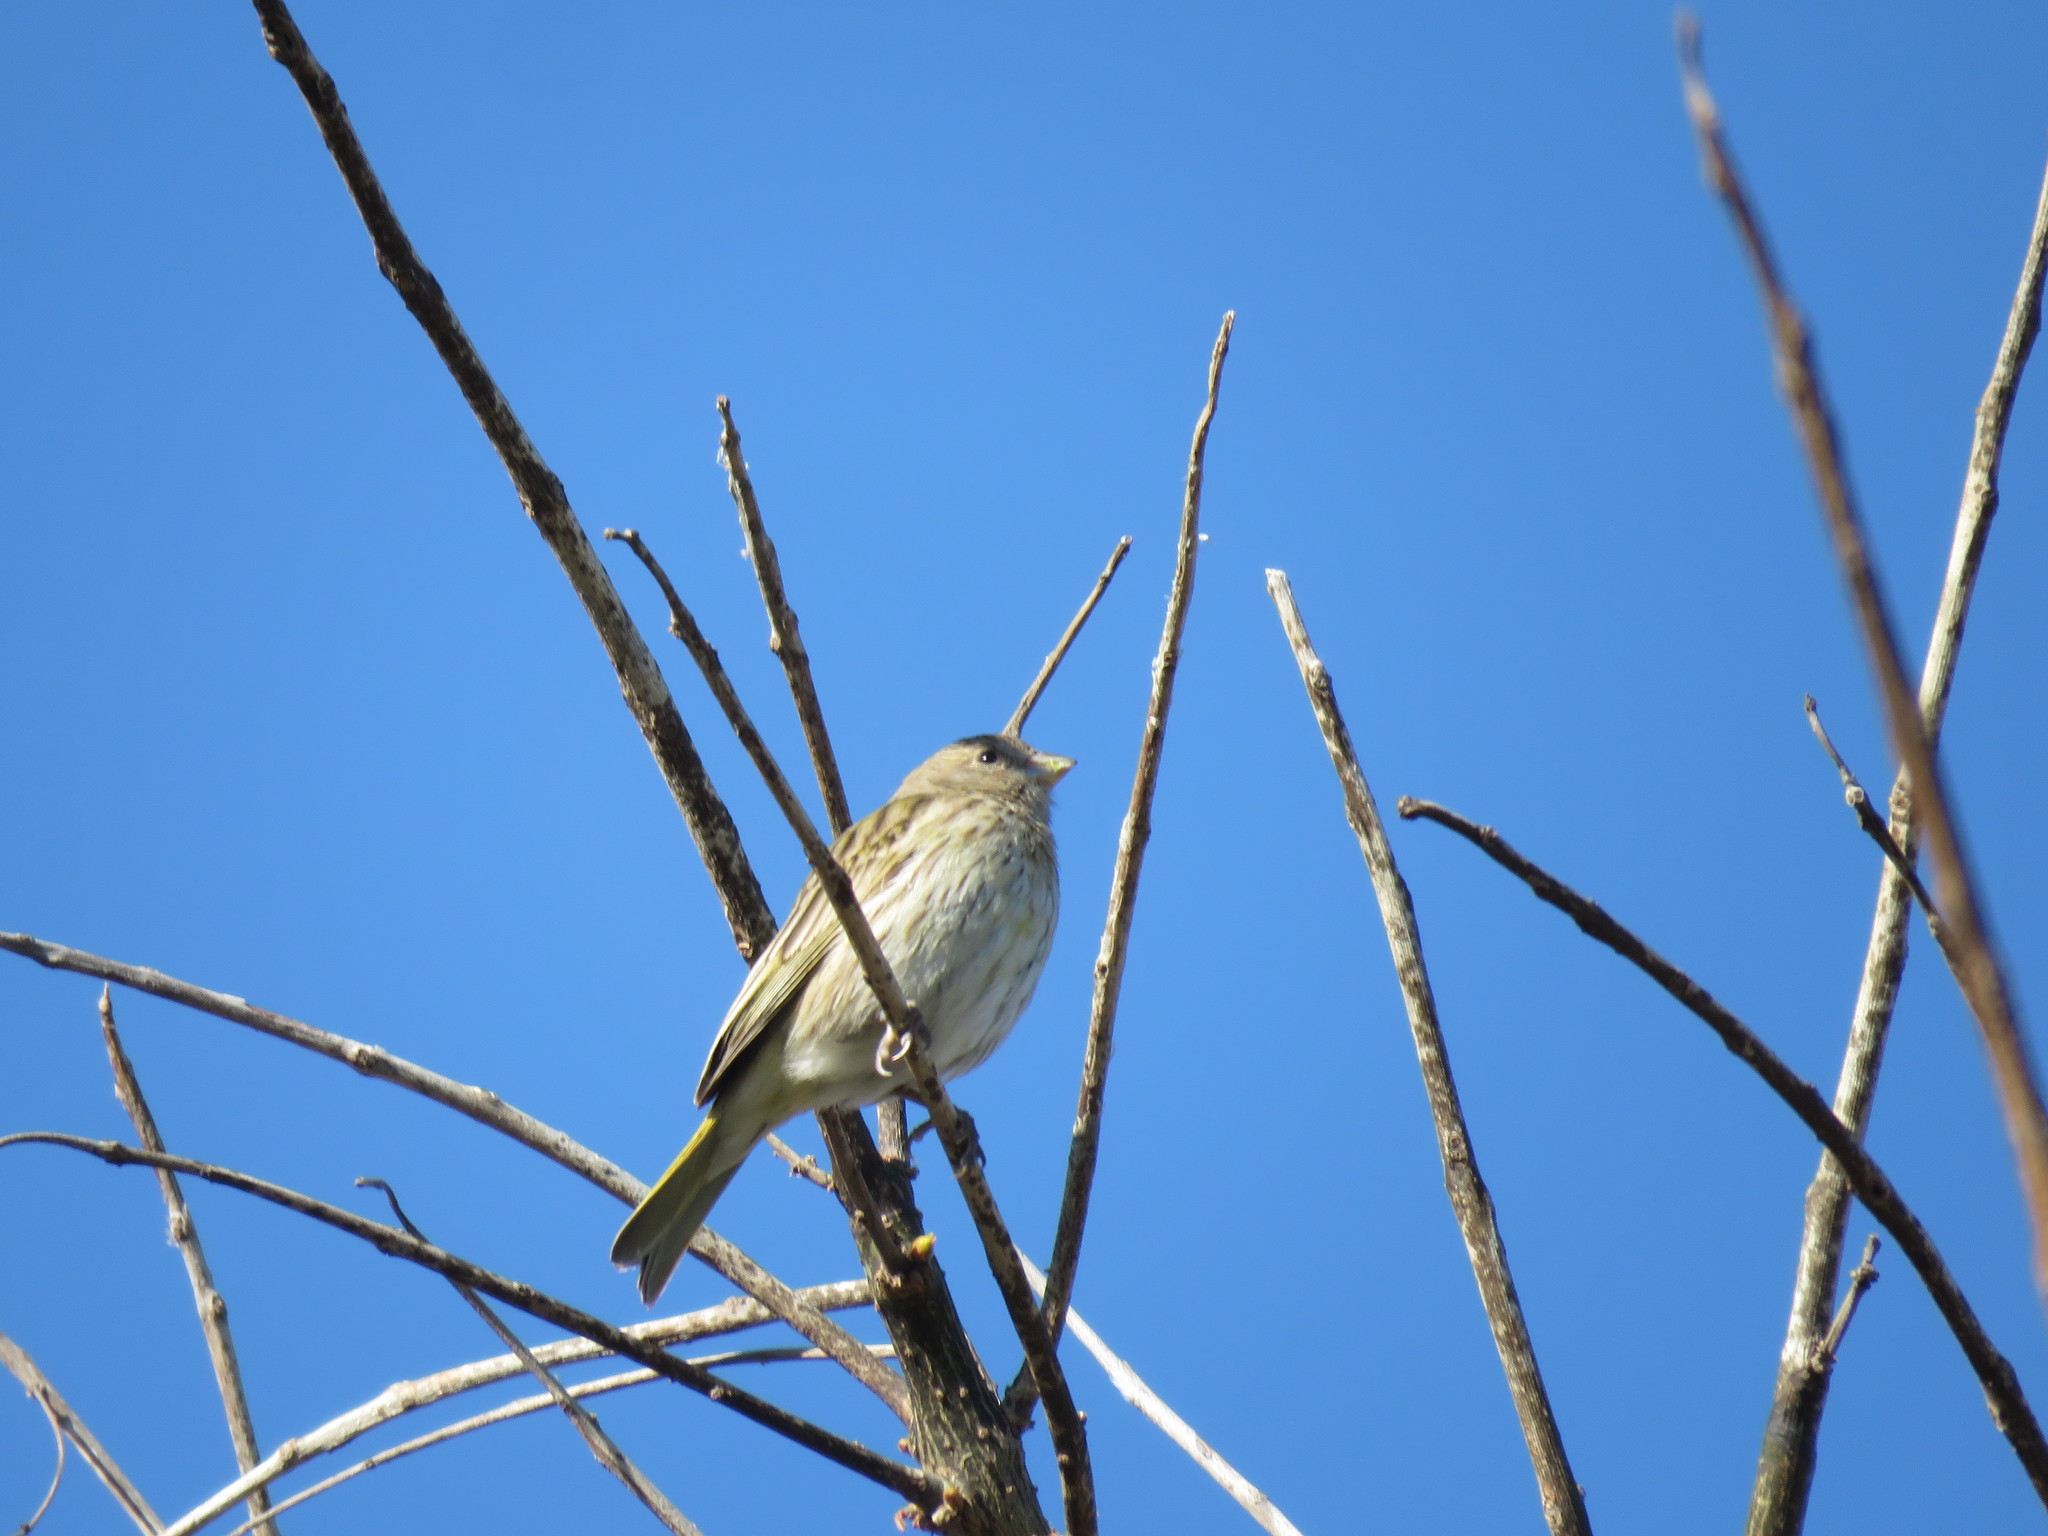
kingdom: Animalia
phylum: Chordata
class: Aves
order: Passeriformes
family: Thraupidae
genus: Sicalis
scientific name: Sicalis flaveola
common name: Saffron finch
